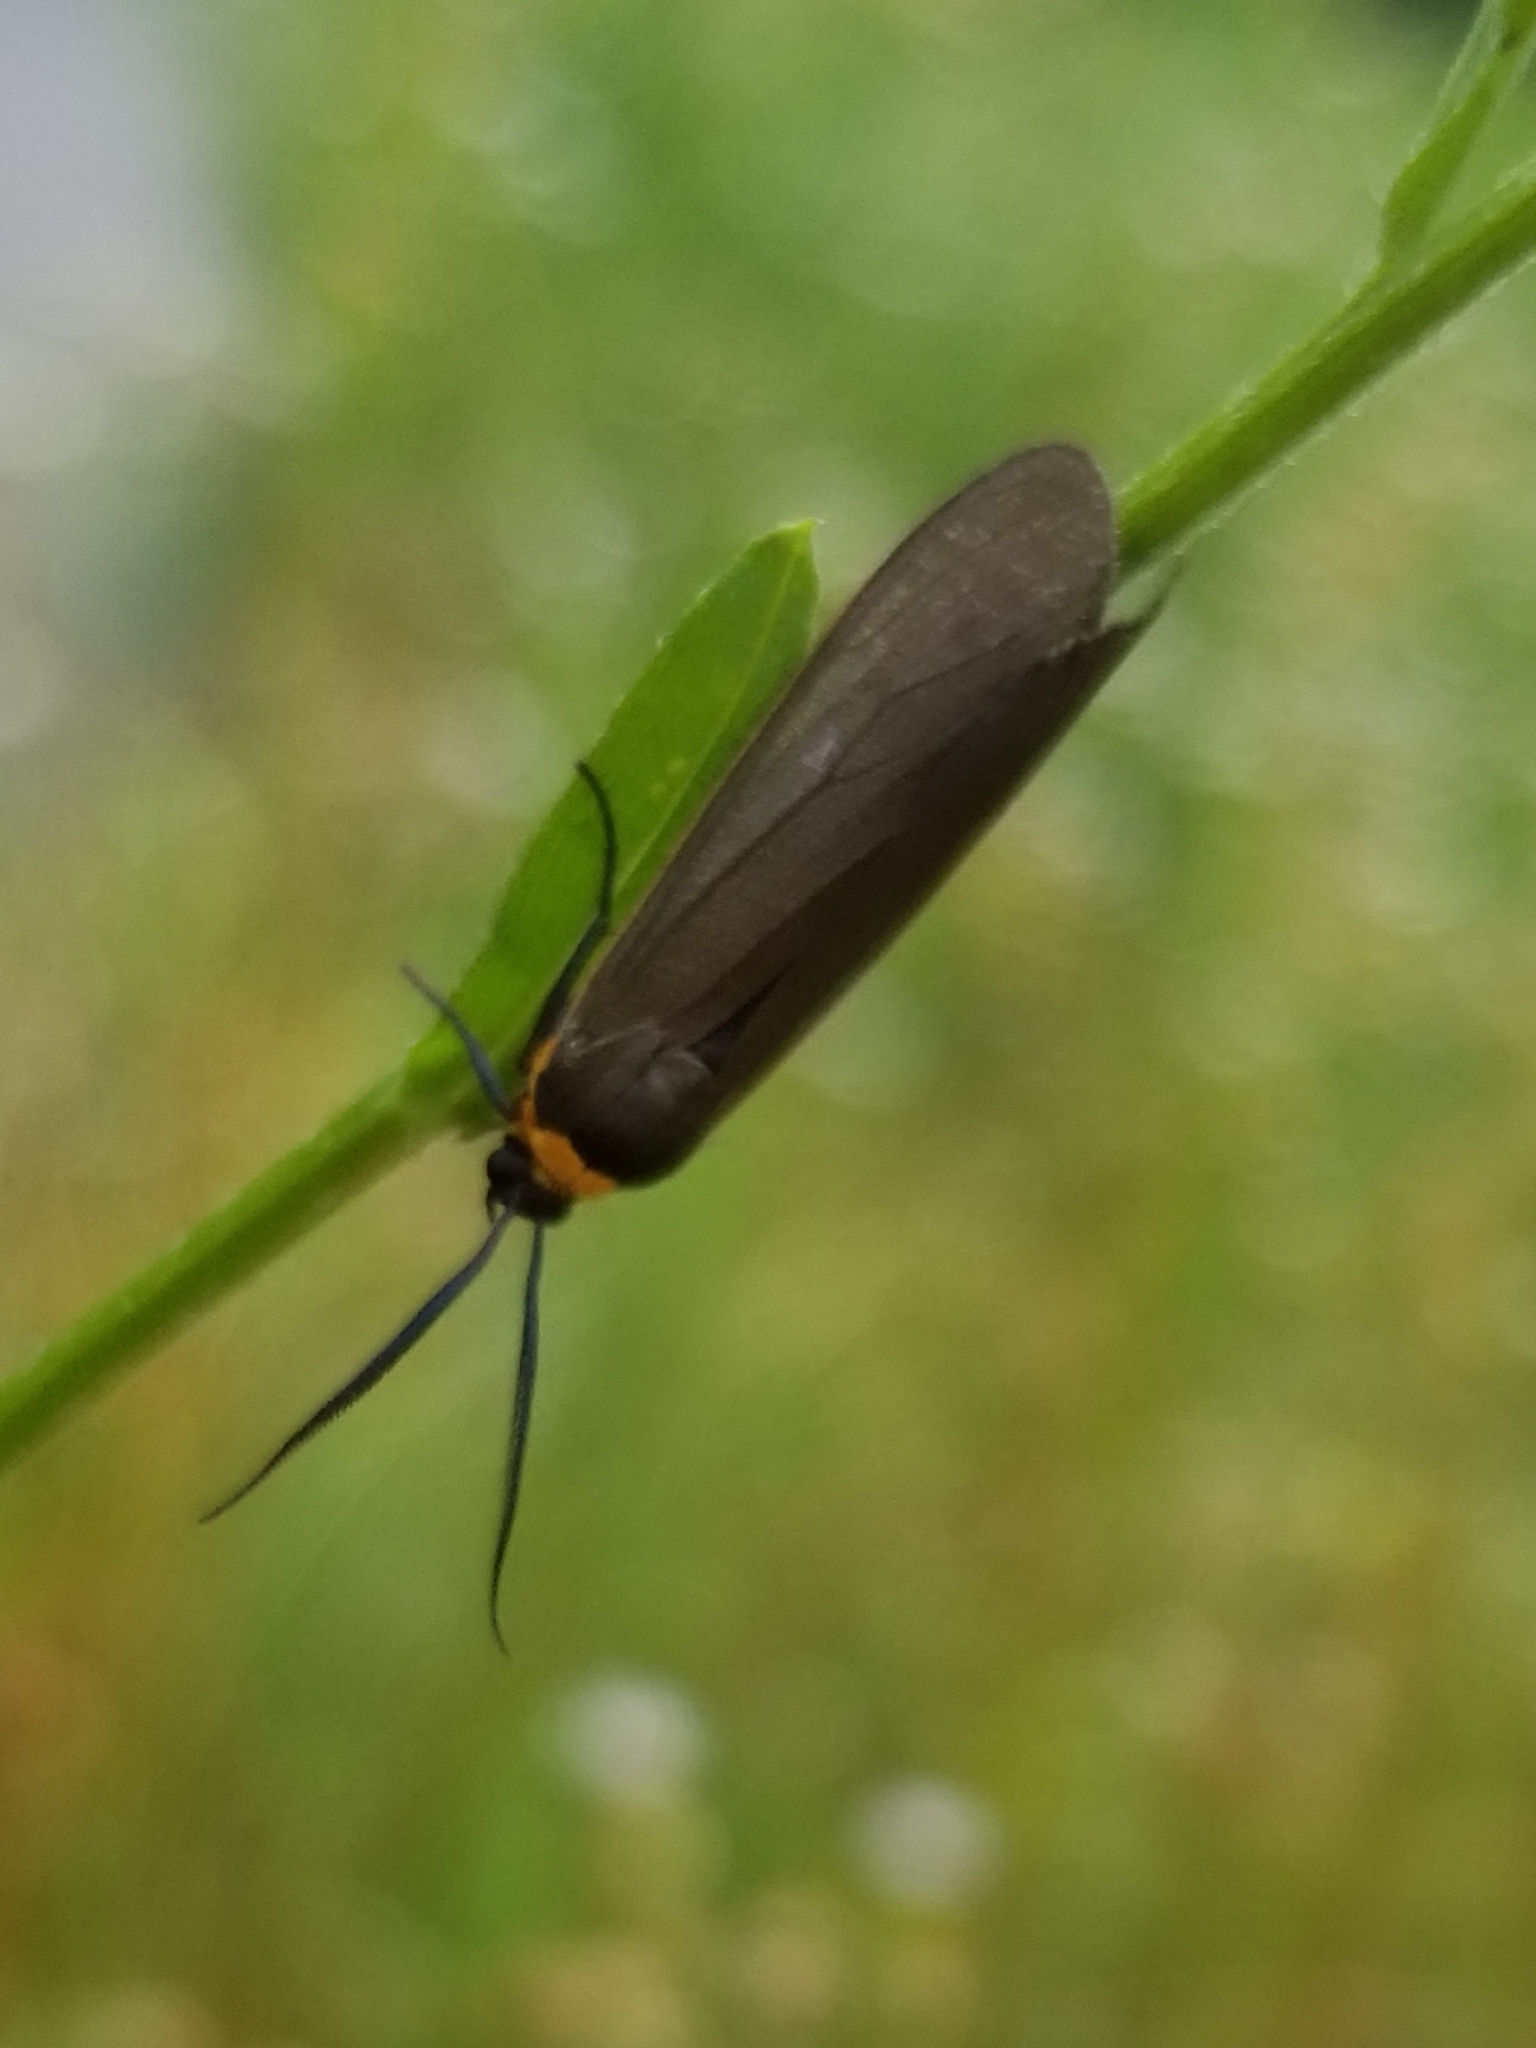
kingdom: Animalia
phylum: Arthropoda
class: Insecta
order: Lepidoptera
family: Erebidae
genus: Cisseps
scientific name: Cisseps fulvicollis
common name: Yellow-collared scape moth
